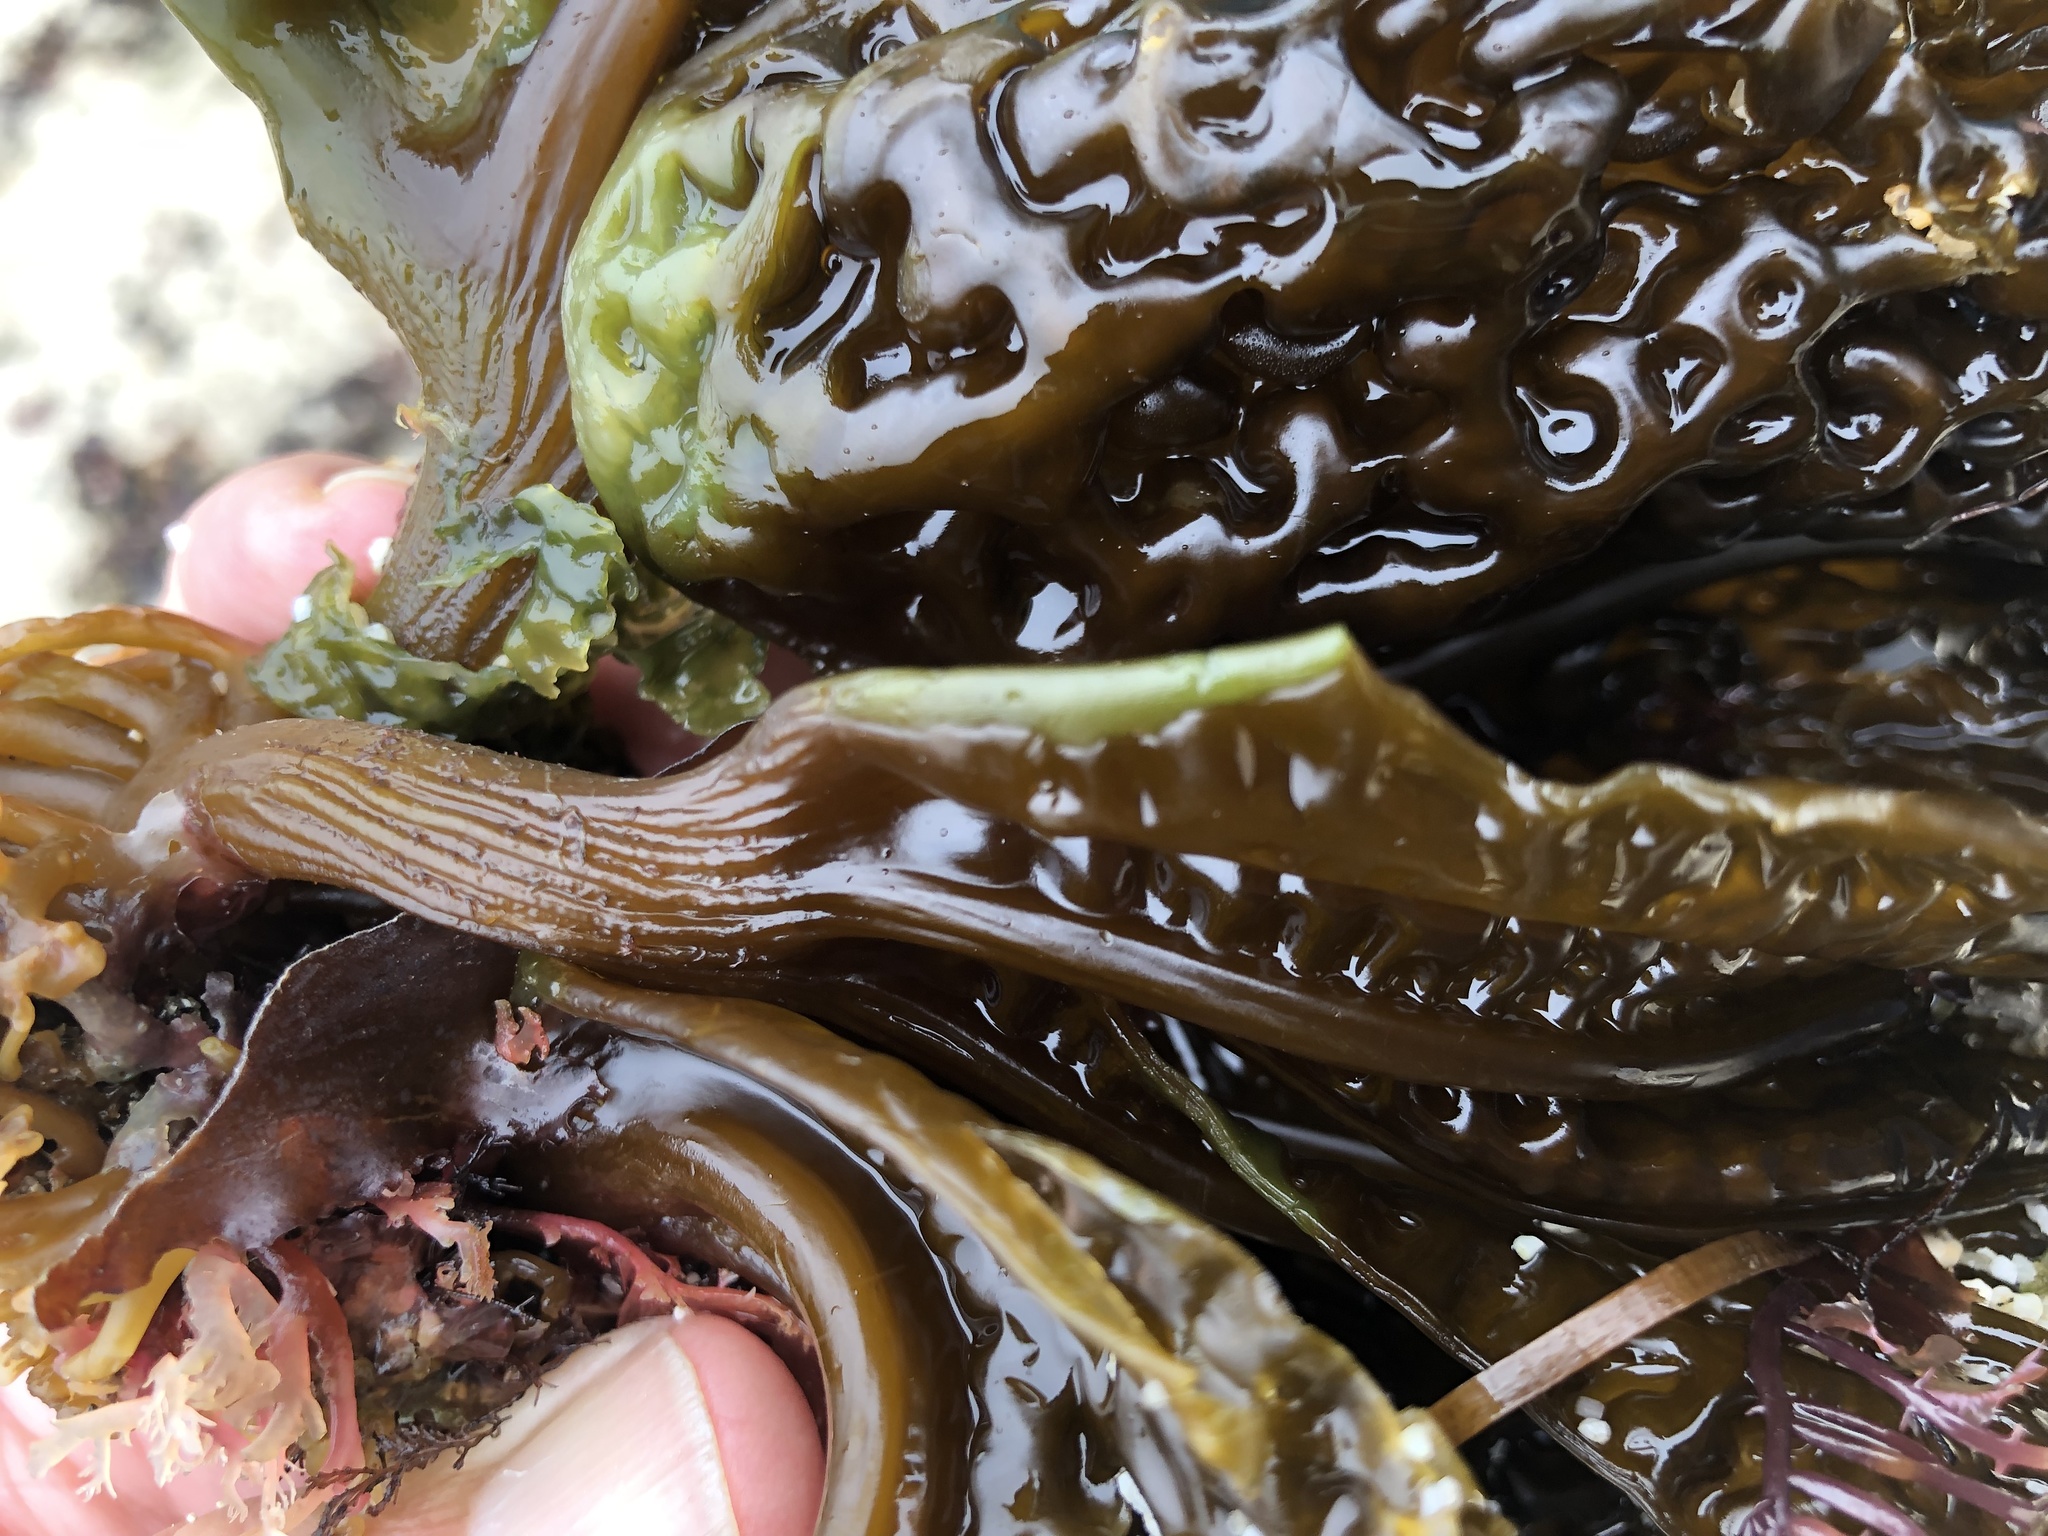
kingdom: Chromista
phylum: Ochrophyta
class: Phaeophyceae
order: Laminariales
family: Costariaceae
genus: Costaria
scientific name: Costaria costata
